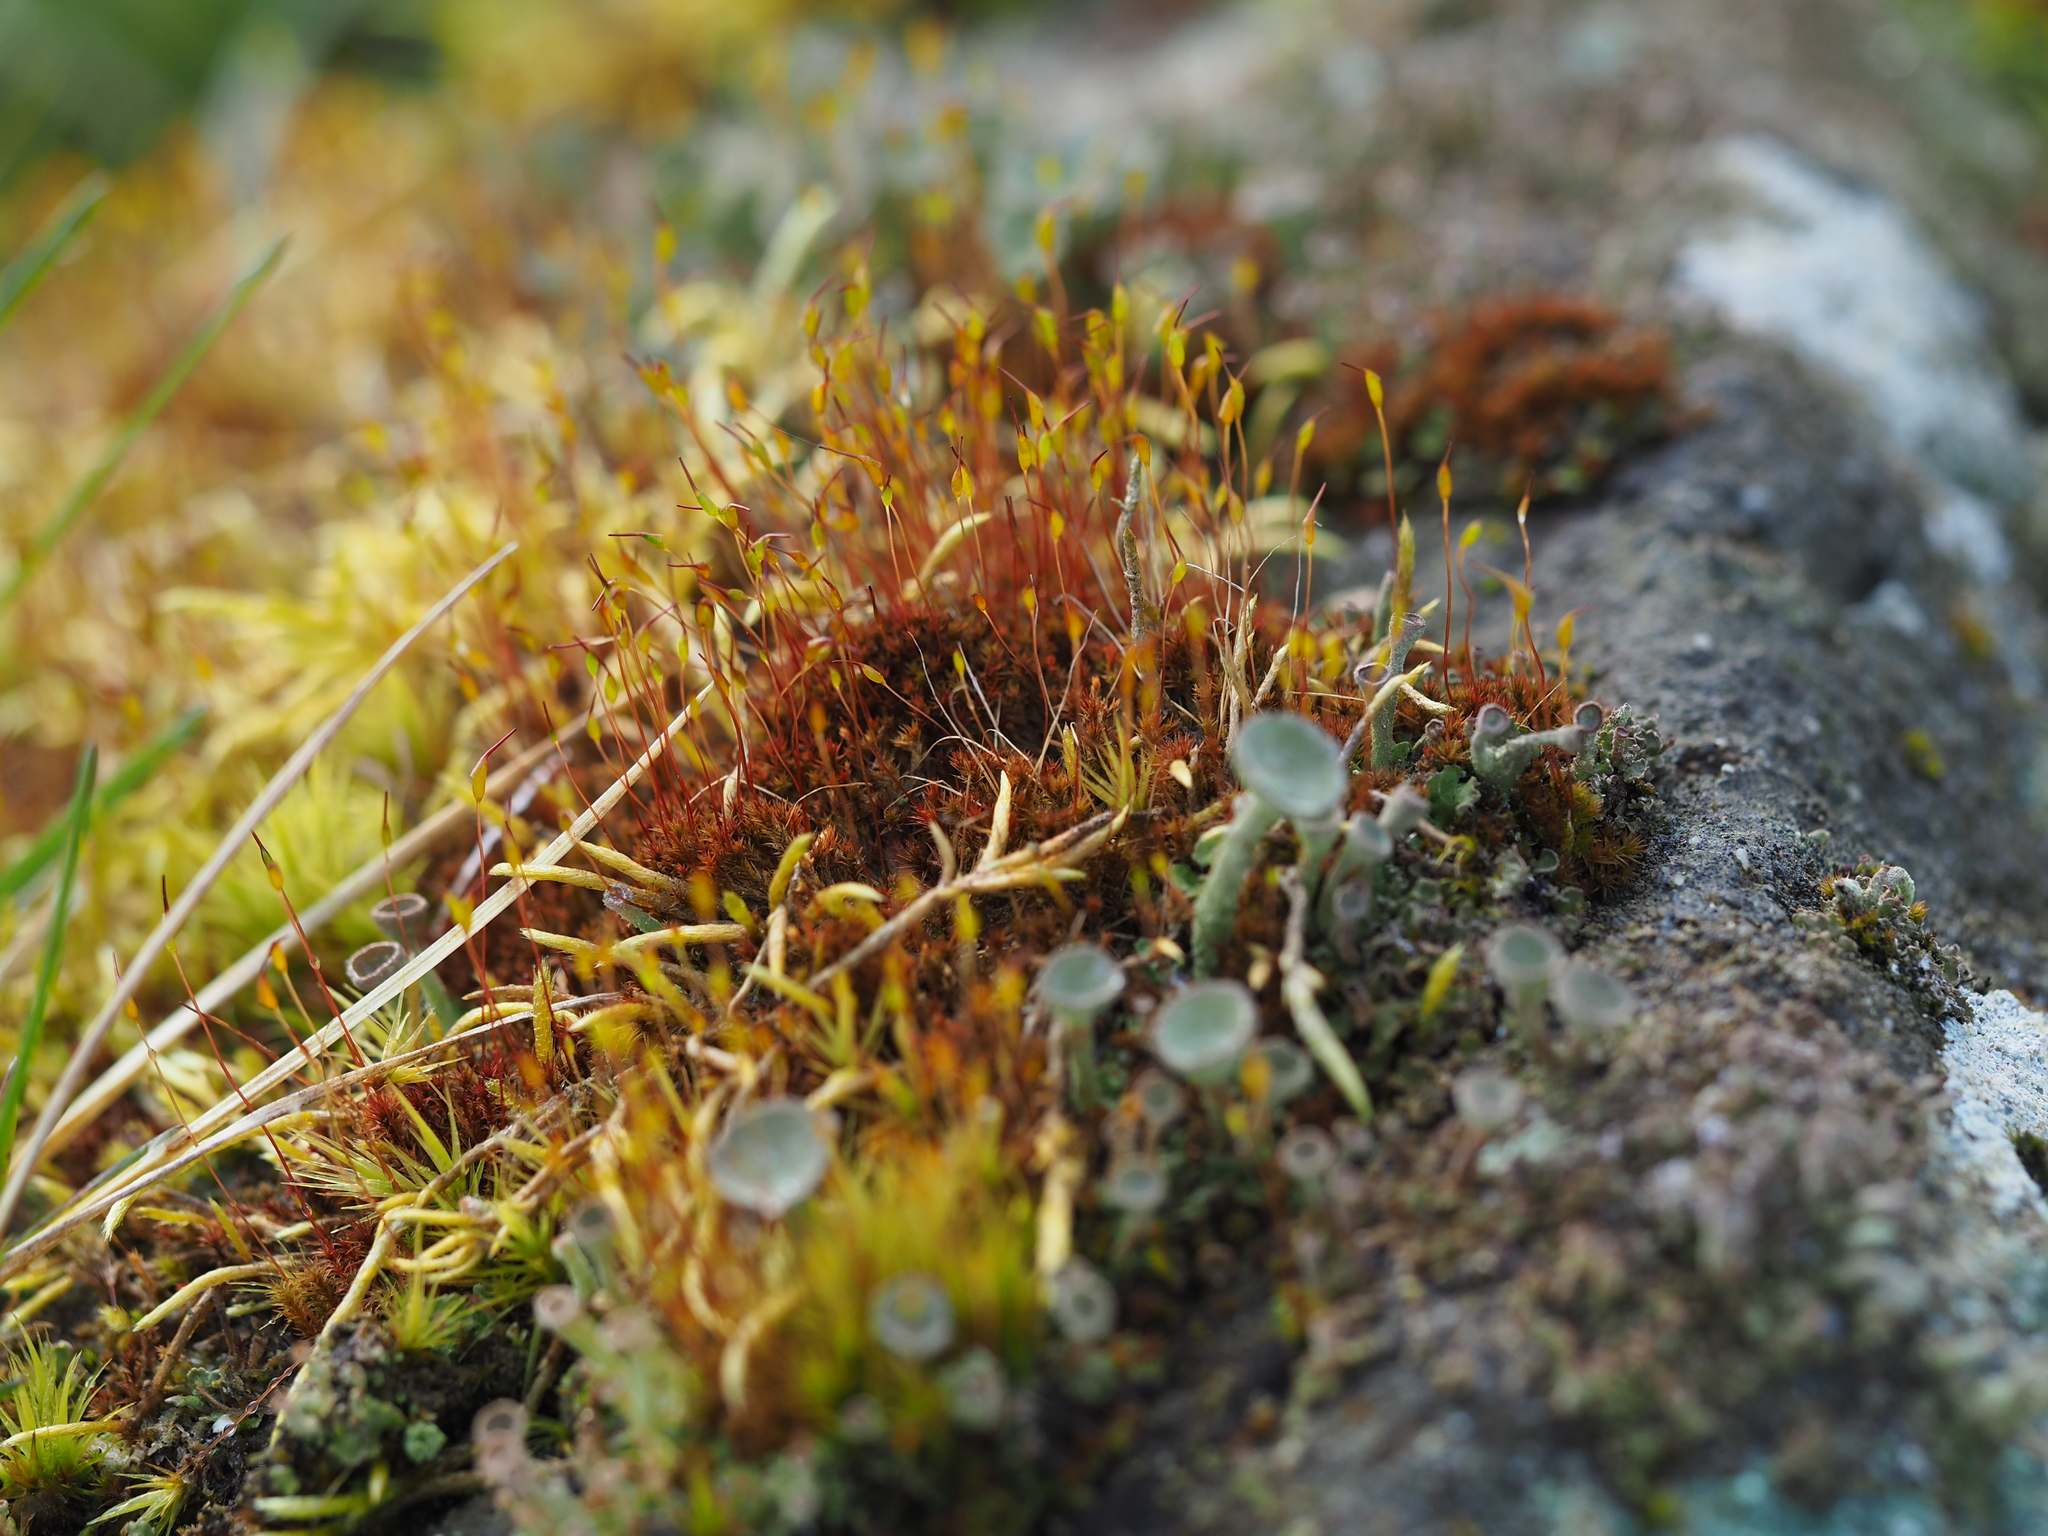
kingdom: Plantae
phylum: Bryophyta
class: Bryopsida
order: Dicranales
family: Ditrichaceae
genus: Ceratodon
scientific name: Ceratodon purpureus
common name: Redshank
